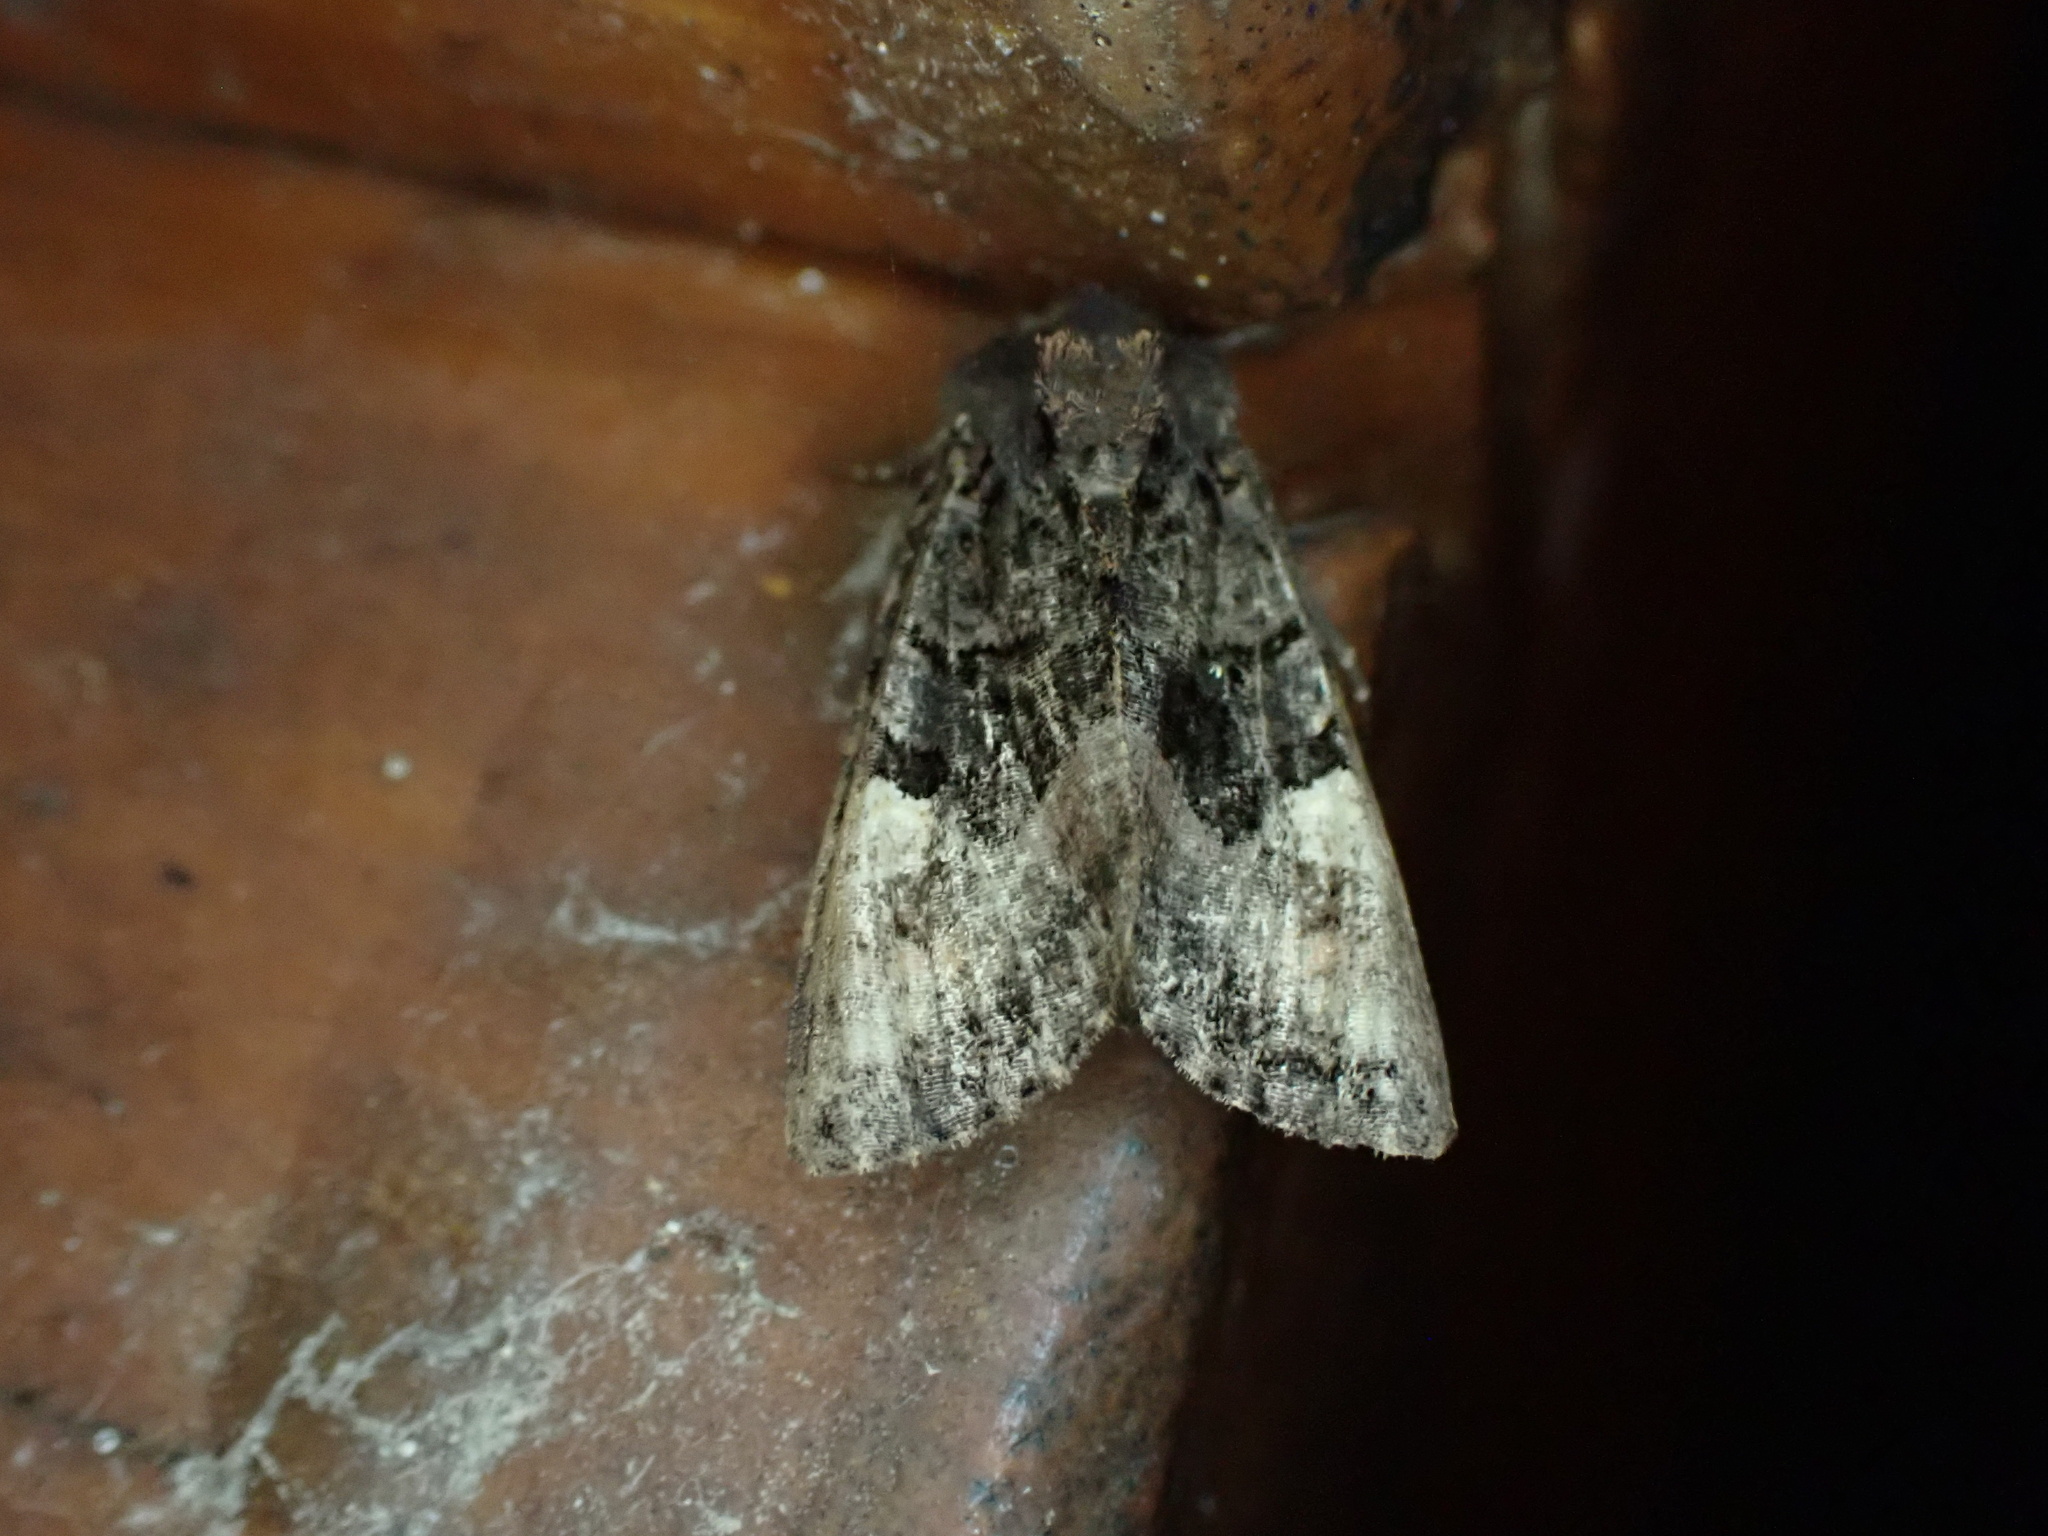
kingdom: Animalia
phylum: Arthropoda
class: Insecta
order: Lepidoptera
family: Noctuidae
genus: Euplexia
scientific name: Euplexia benesimilis
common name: American angle shades
